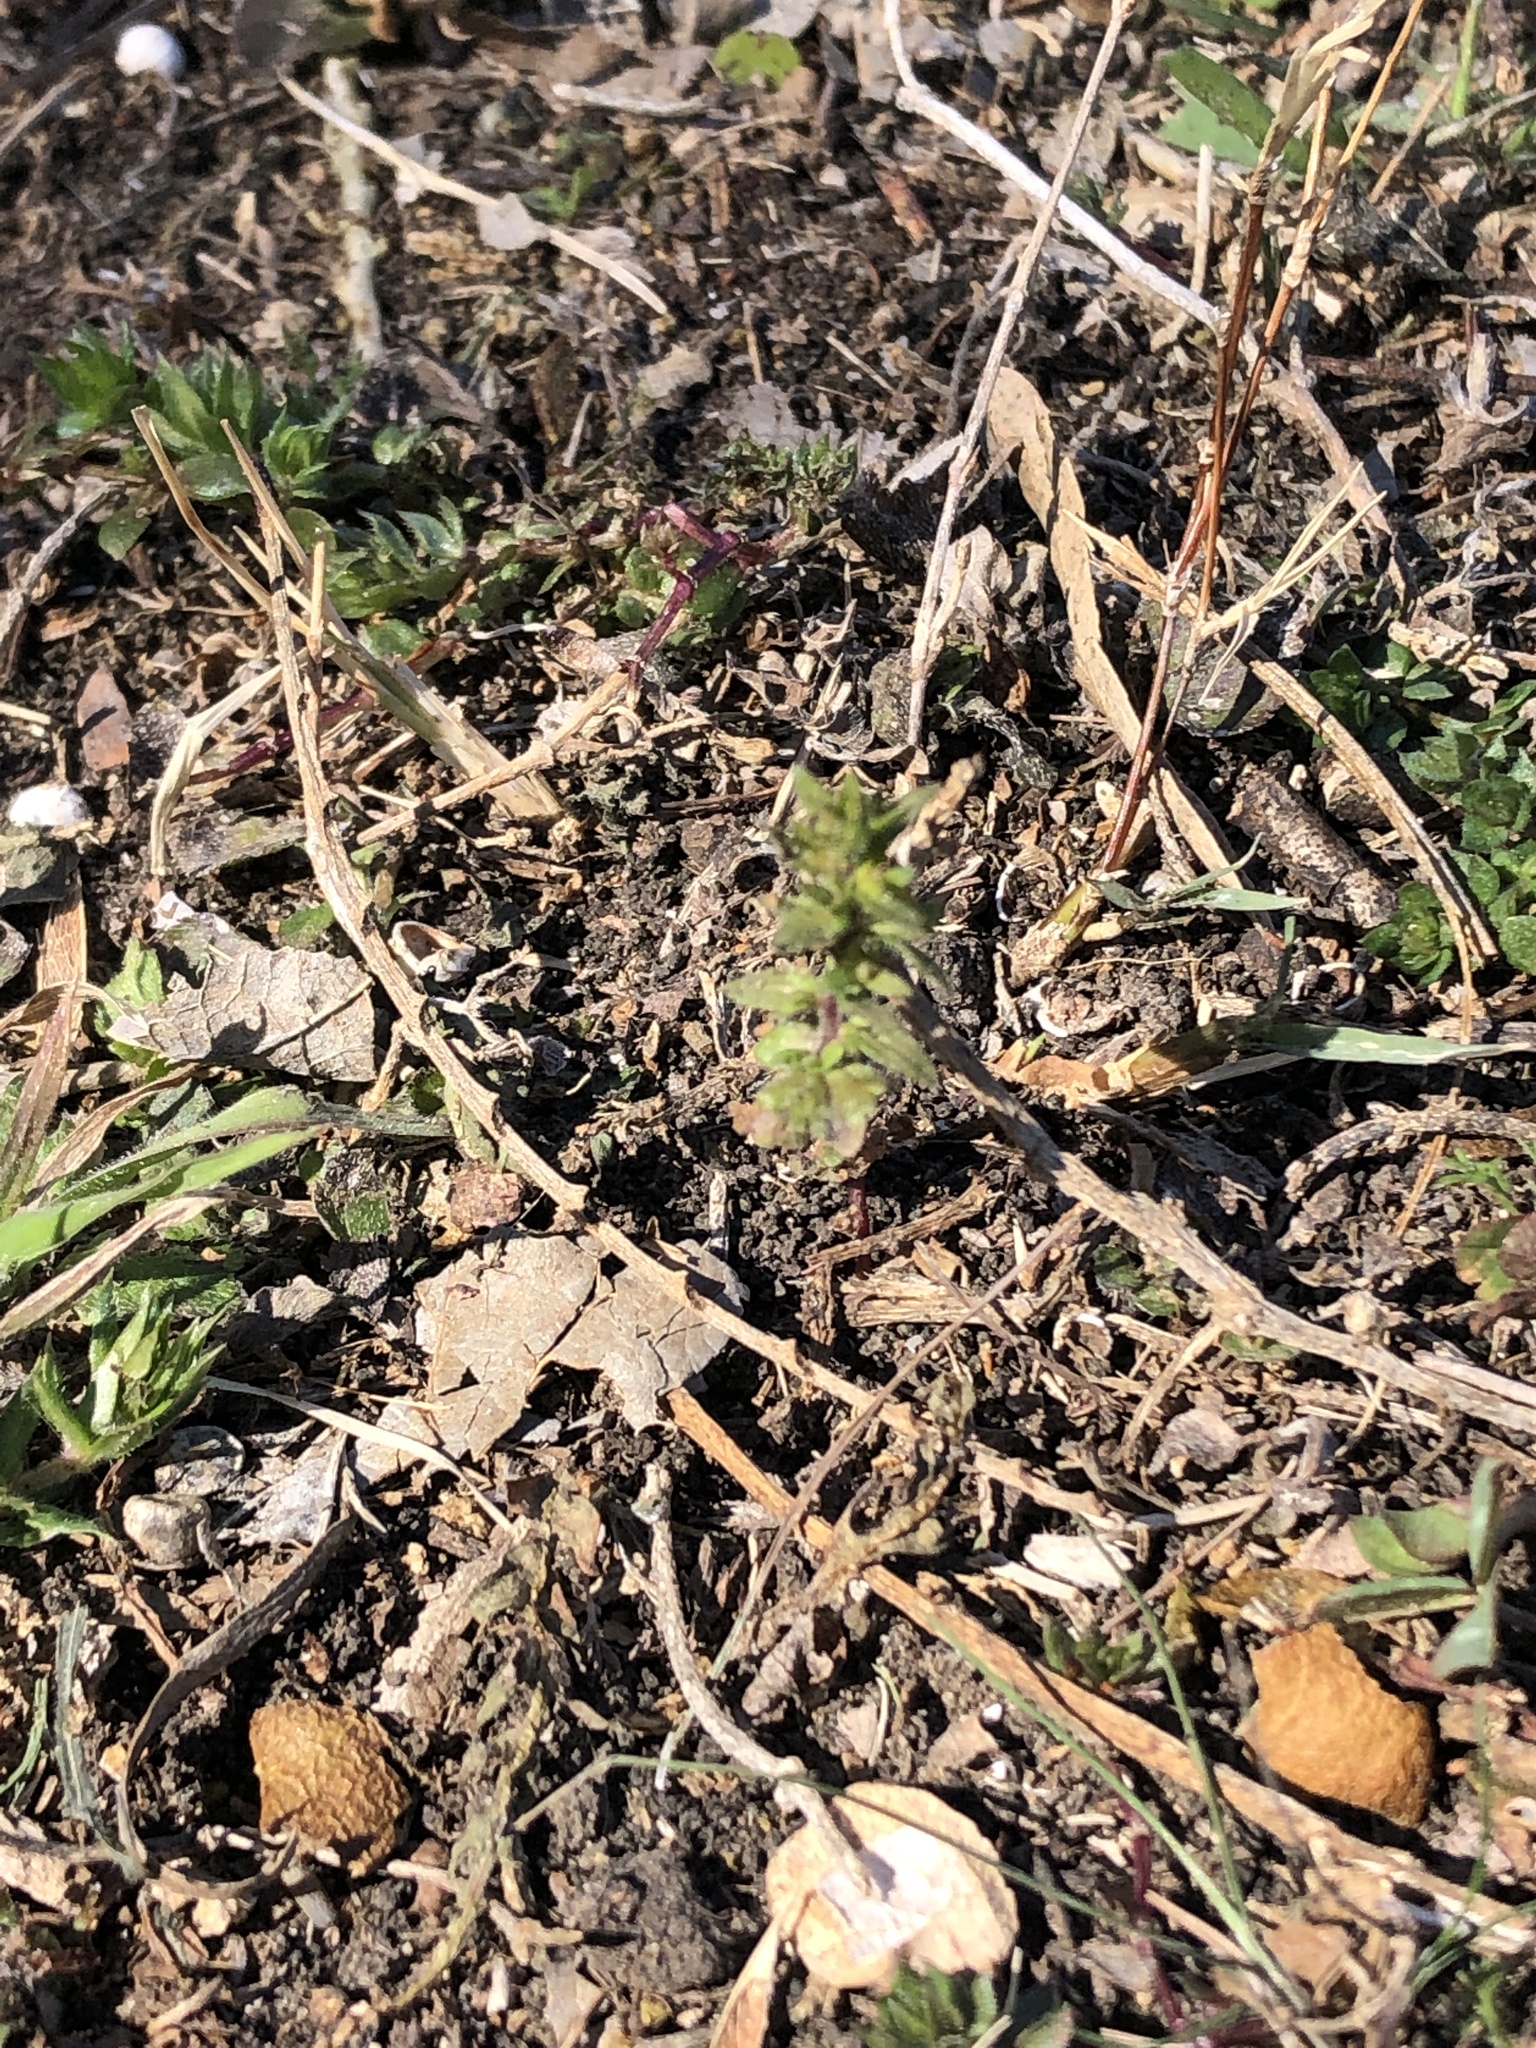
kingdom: Plantae
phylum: Tracheophyta
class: Magnoliopsida
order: Lamiales
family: Plantaginaceae
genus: Veronica
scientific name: Veronica arvensis
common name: Corn speedwell
